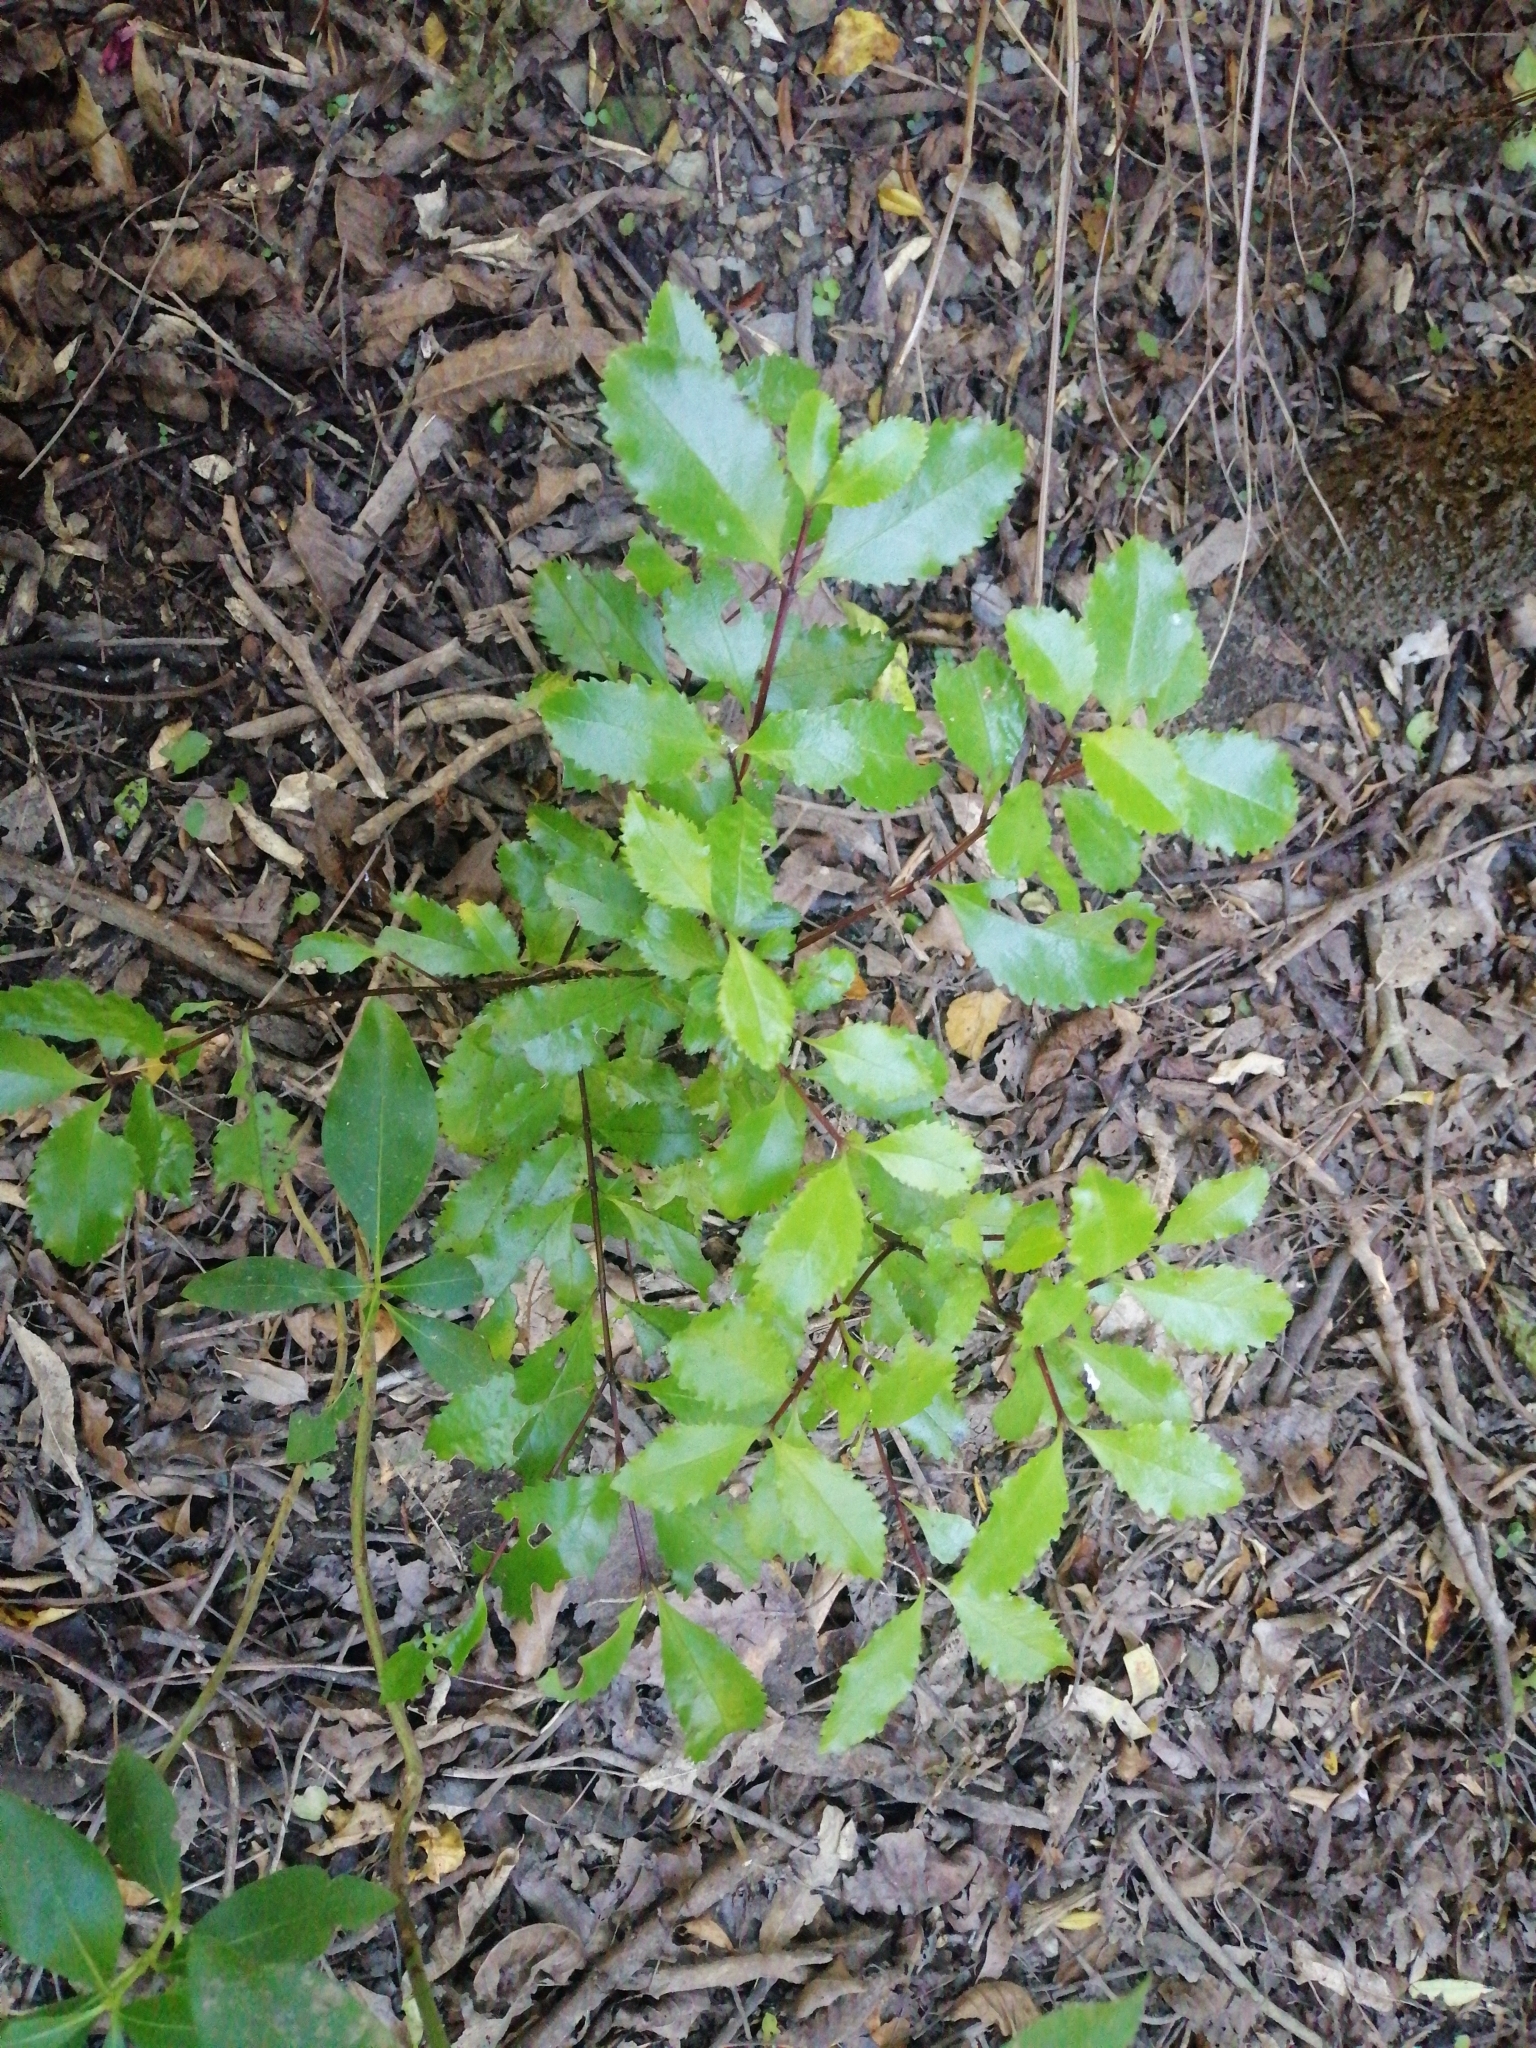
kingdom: Plantae
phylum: Tracheophyta
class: Magnoliopsida
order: Laurales
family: Atherospermataceae
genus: Laurelia
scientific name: Laurelia novae-zelandiae
